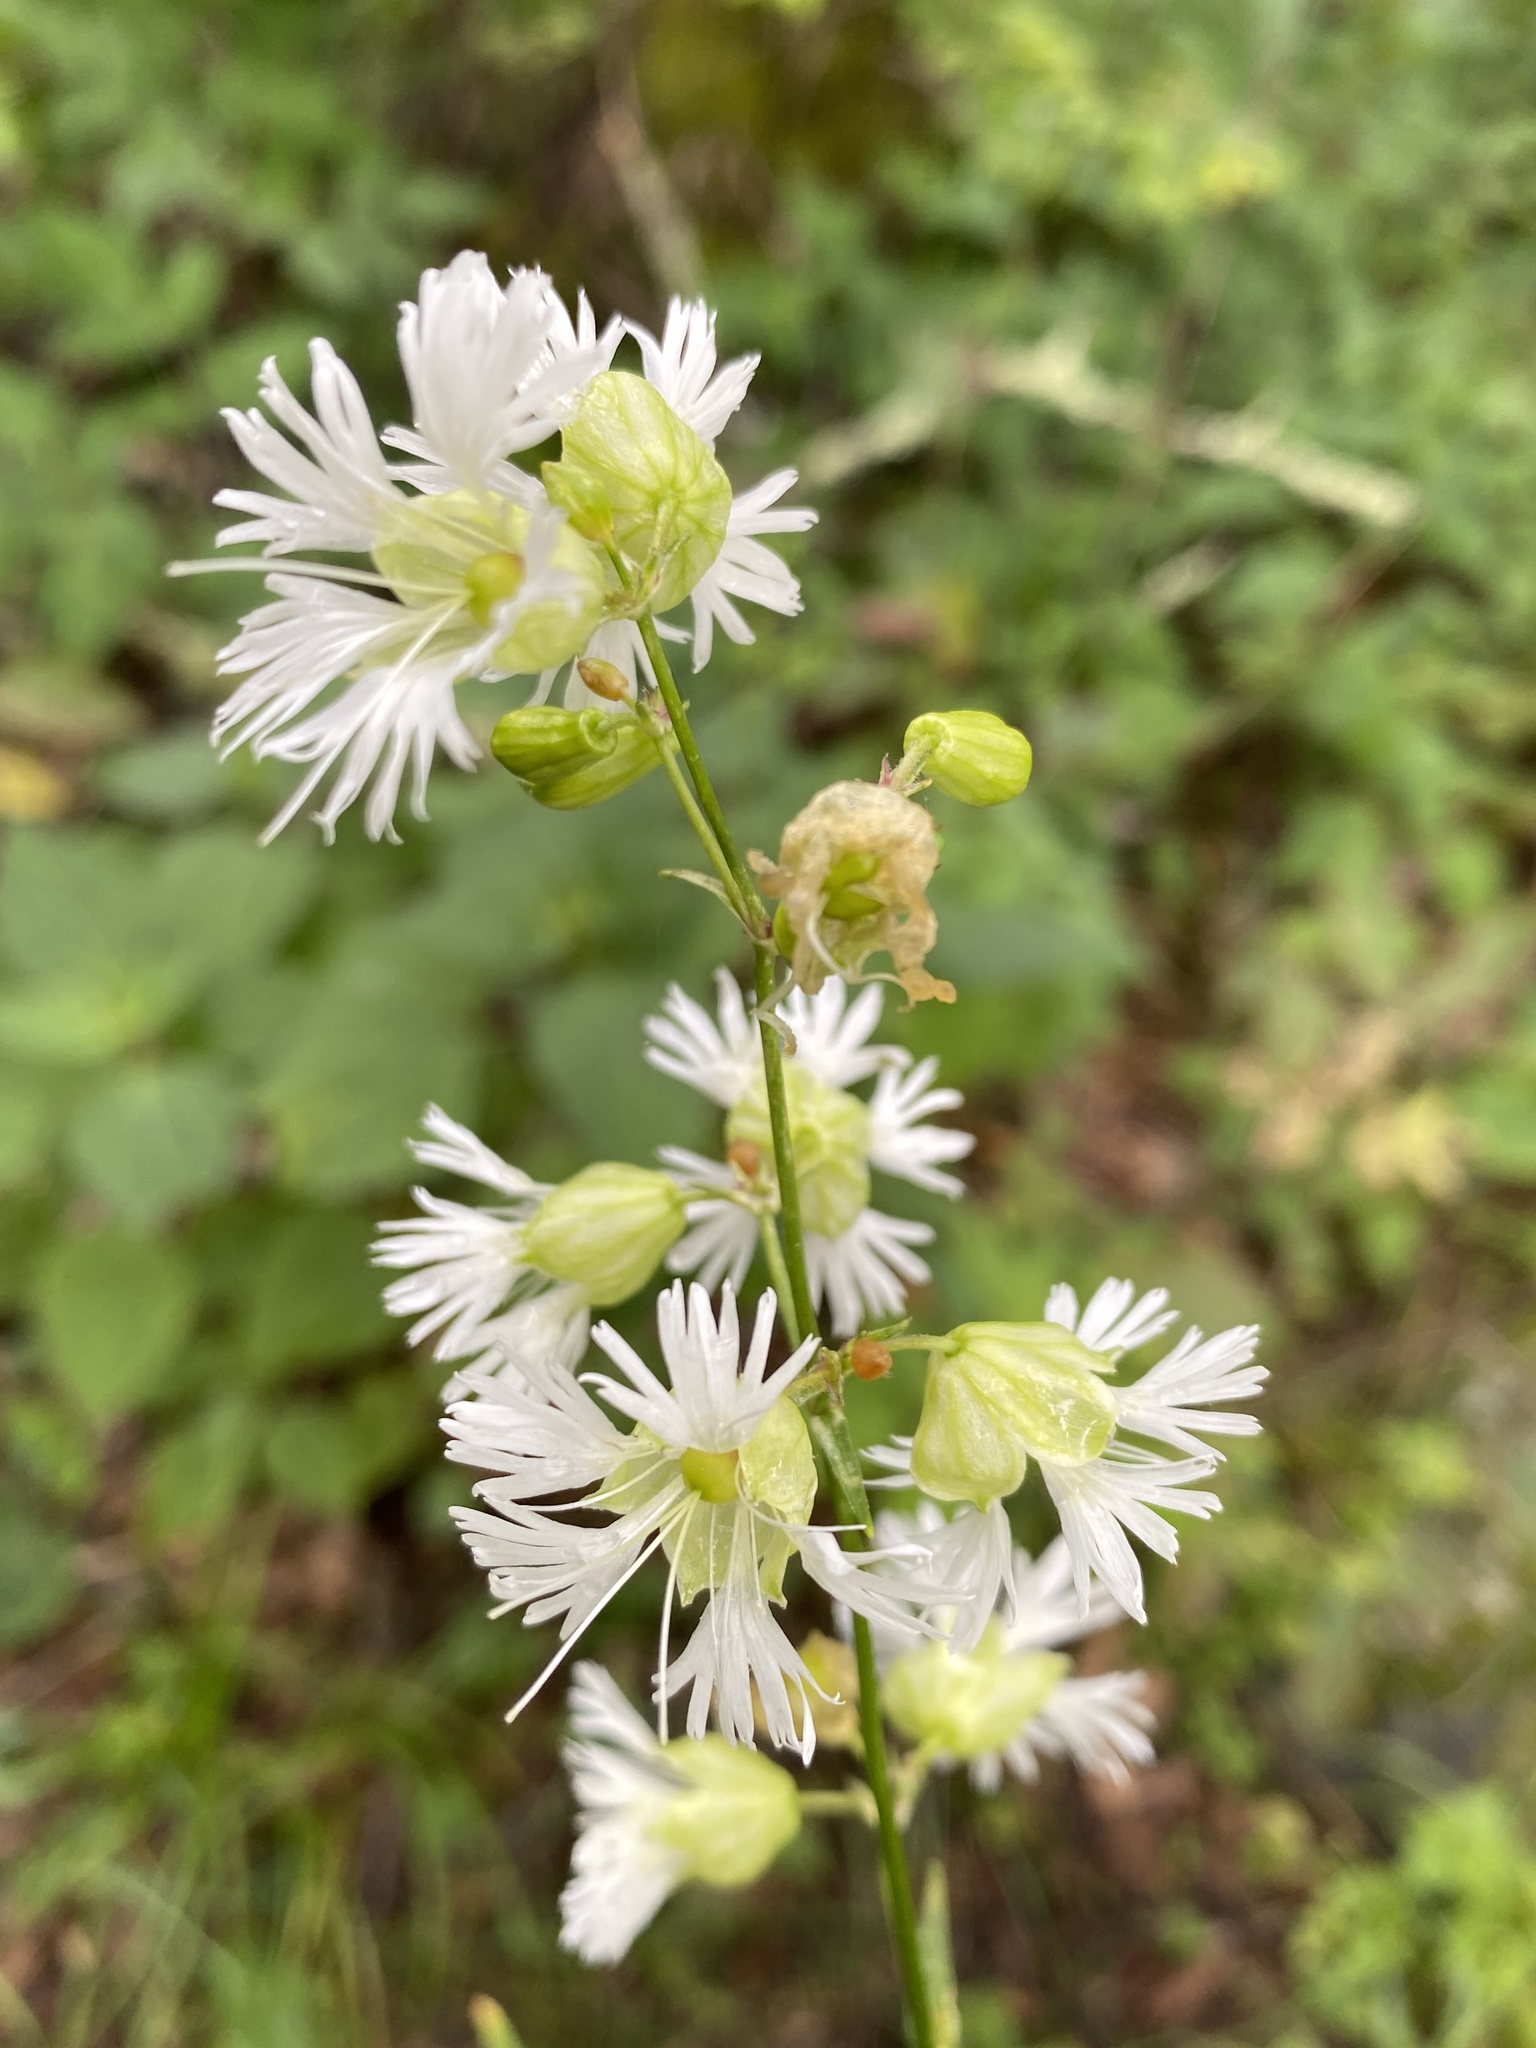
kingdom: Plantae
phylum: Tracheophyta
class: Magnoliopsida
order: Caryophyllales
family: Caryophyllaceae
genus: Silene
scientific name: Silene stellata
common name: Starry campion
